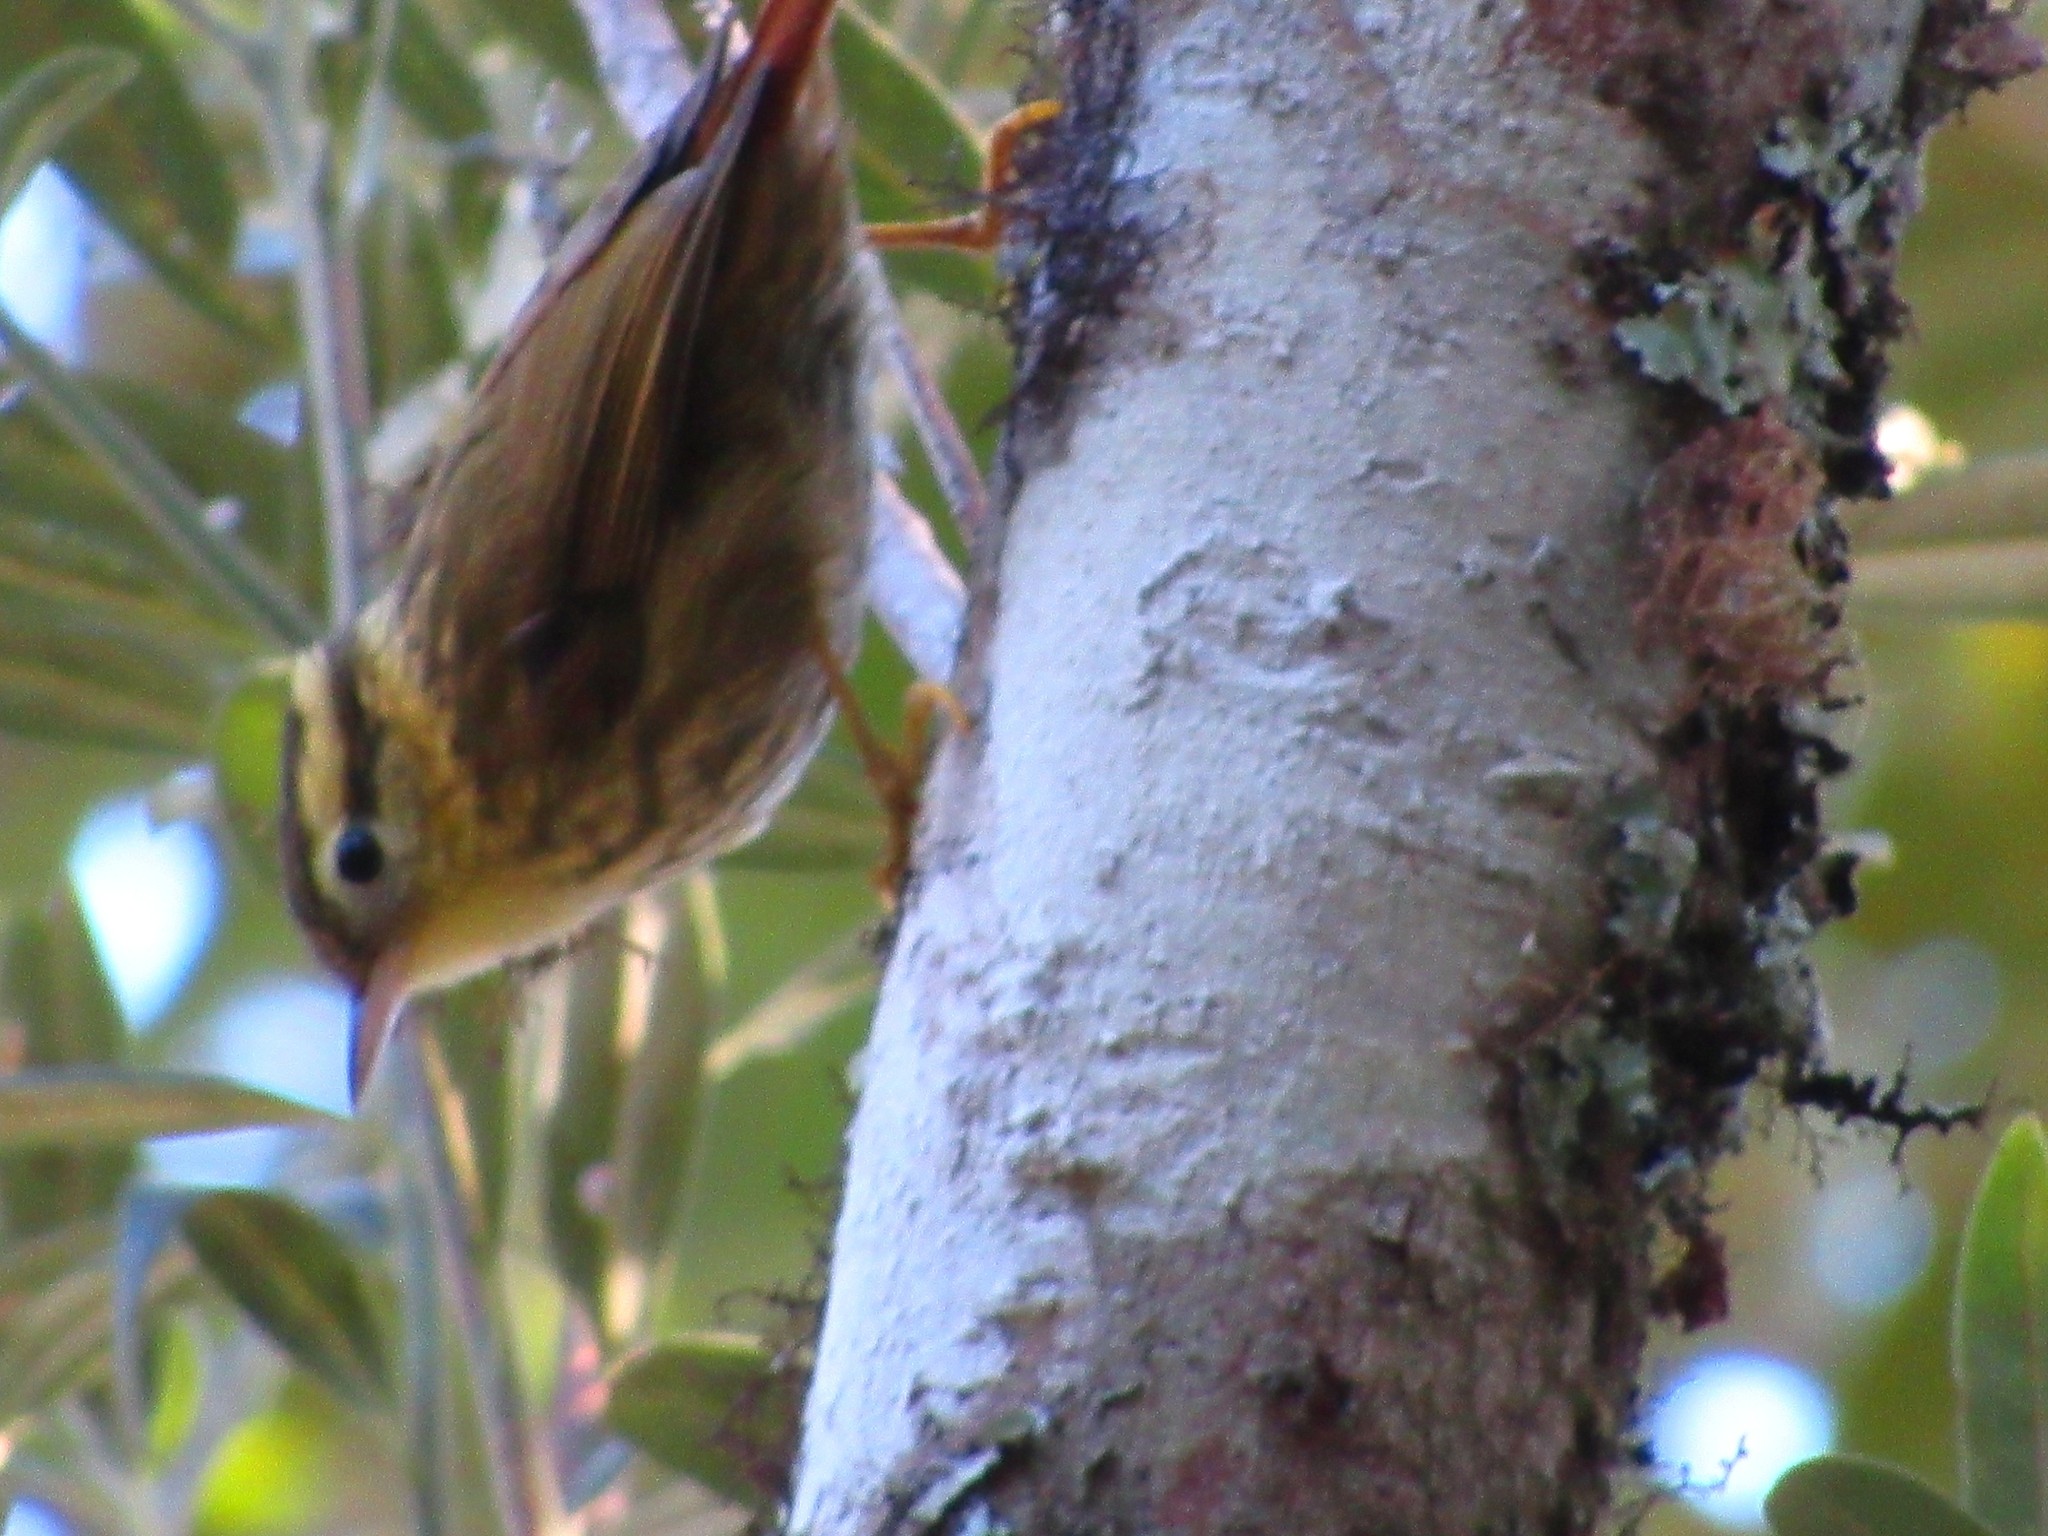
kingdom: Animalia
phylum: Chordata
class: Aves
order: Passeriformes
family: Furnariidae
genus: Heliobletus
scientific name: Heliobletus contaminatus
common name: Sharp-billed treehunter
